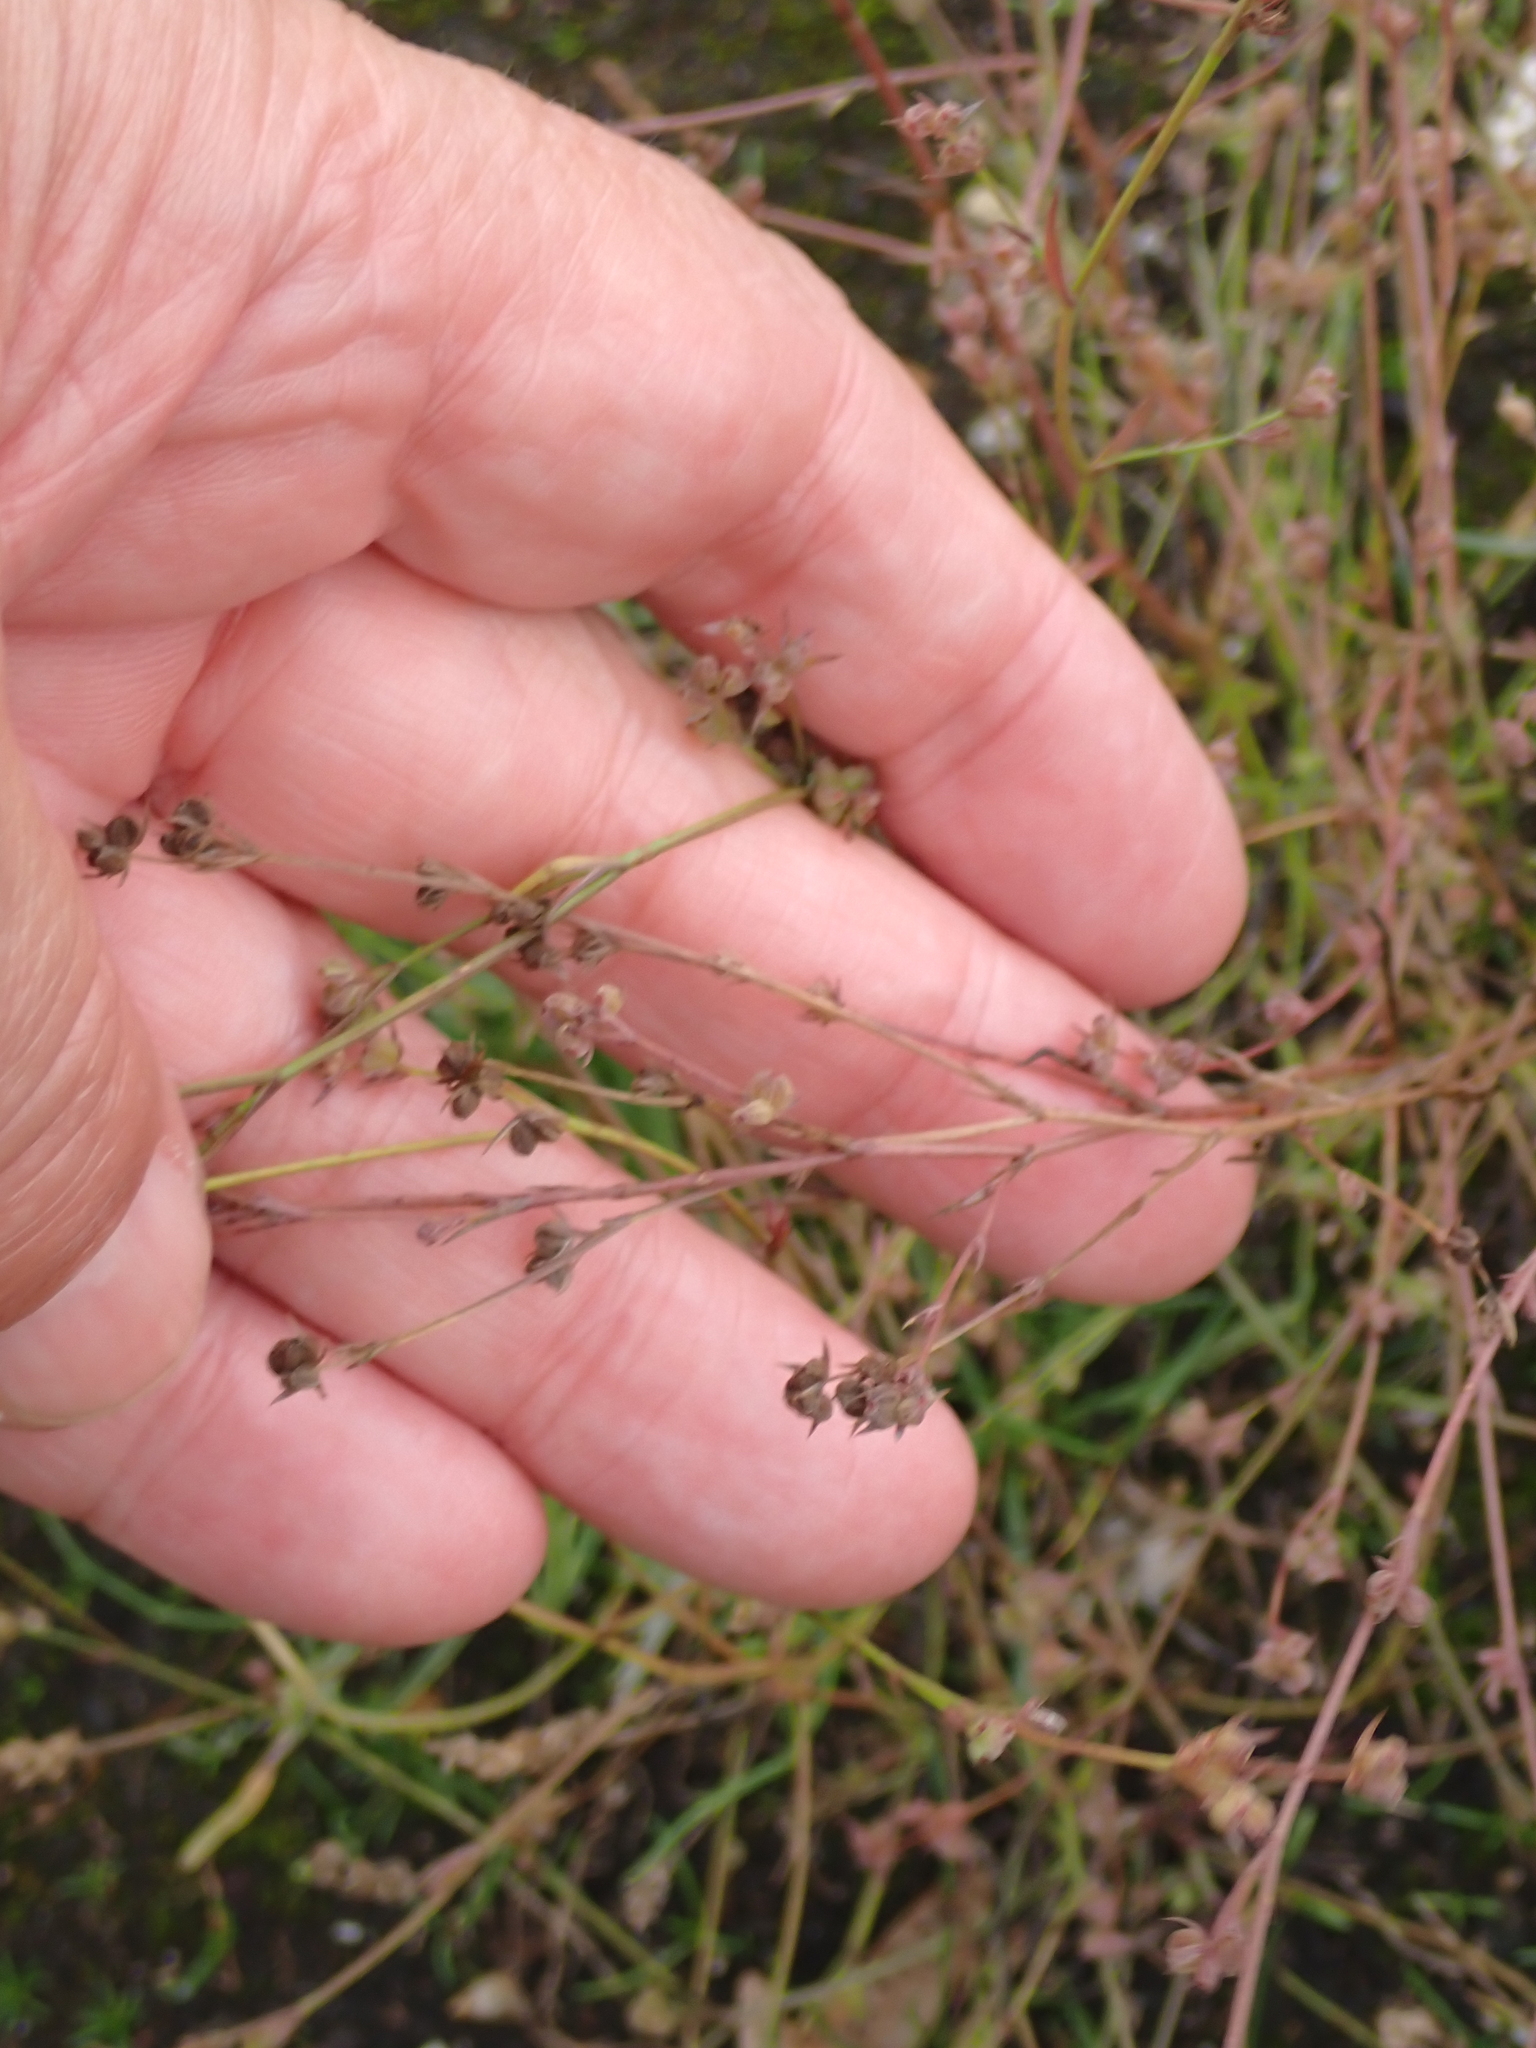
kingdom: Plantae
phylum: Tracheophyta
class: Magnoliopsida
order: Apiales
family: Apiaceae
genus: Bupleurum
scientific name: Bupleurum tenuissimum
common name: Slender hare's-ear
